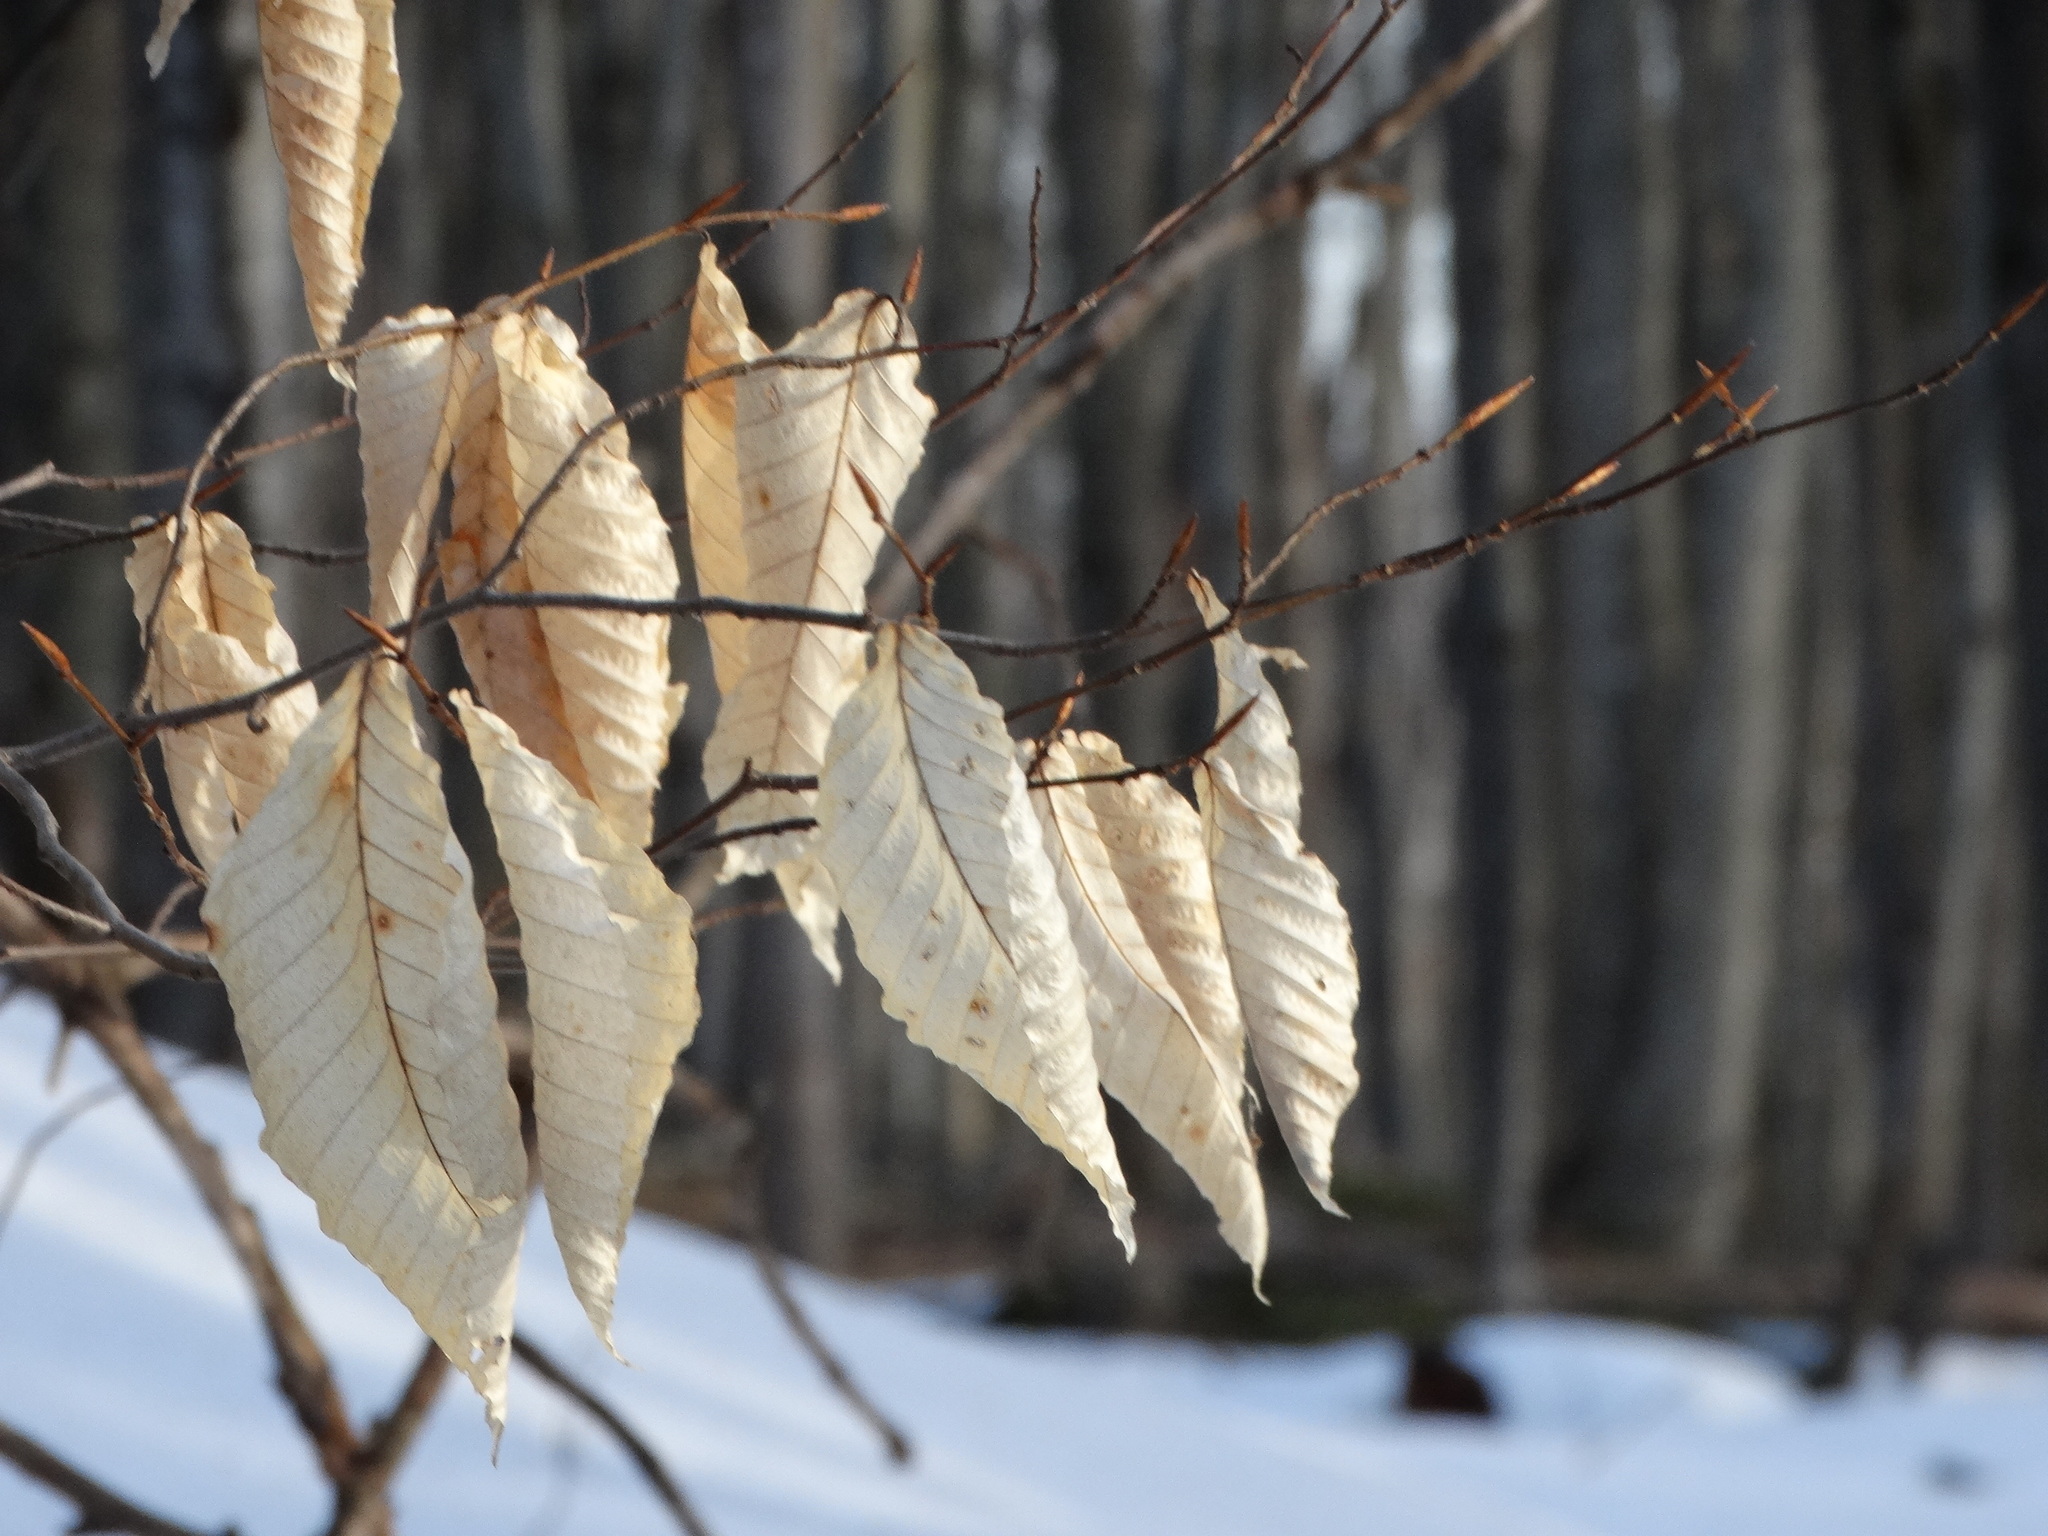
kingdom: Plantae
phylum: Tracheophyta
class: Magnoliopsida
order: Fagales
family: Fagaceae
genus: Fagus
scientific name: Fagus grandifolia
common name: American beech
